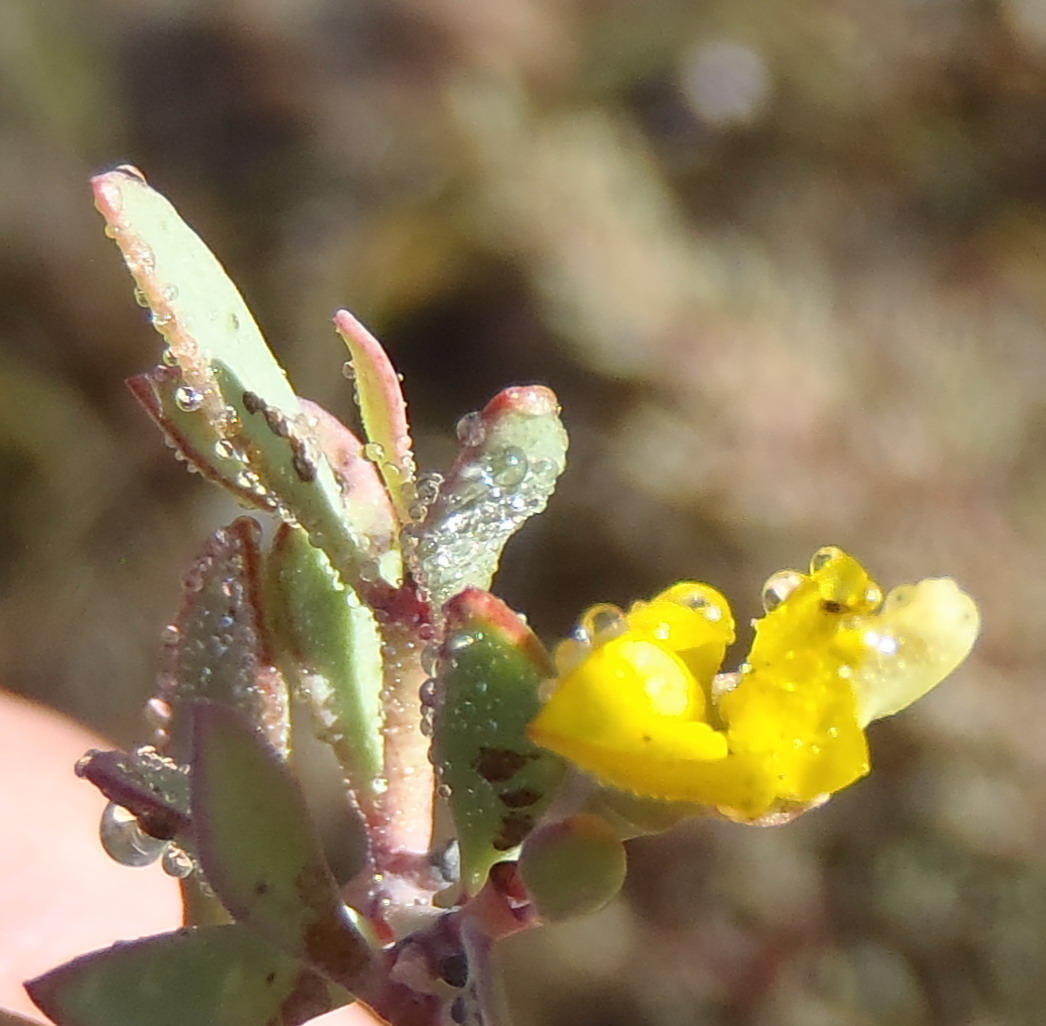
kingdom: Plantae
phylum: Tracheophyta
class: Magnoliopsida
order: Fabales
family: Fabaceae
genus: Rafnia
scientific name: Rafnia capensis
